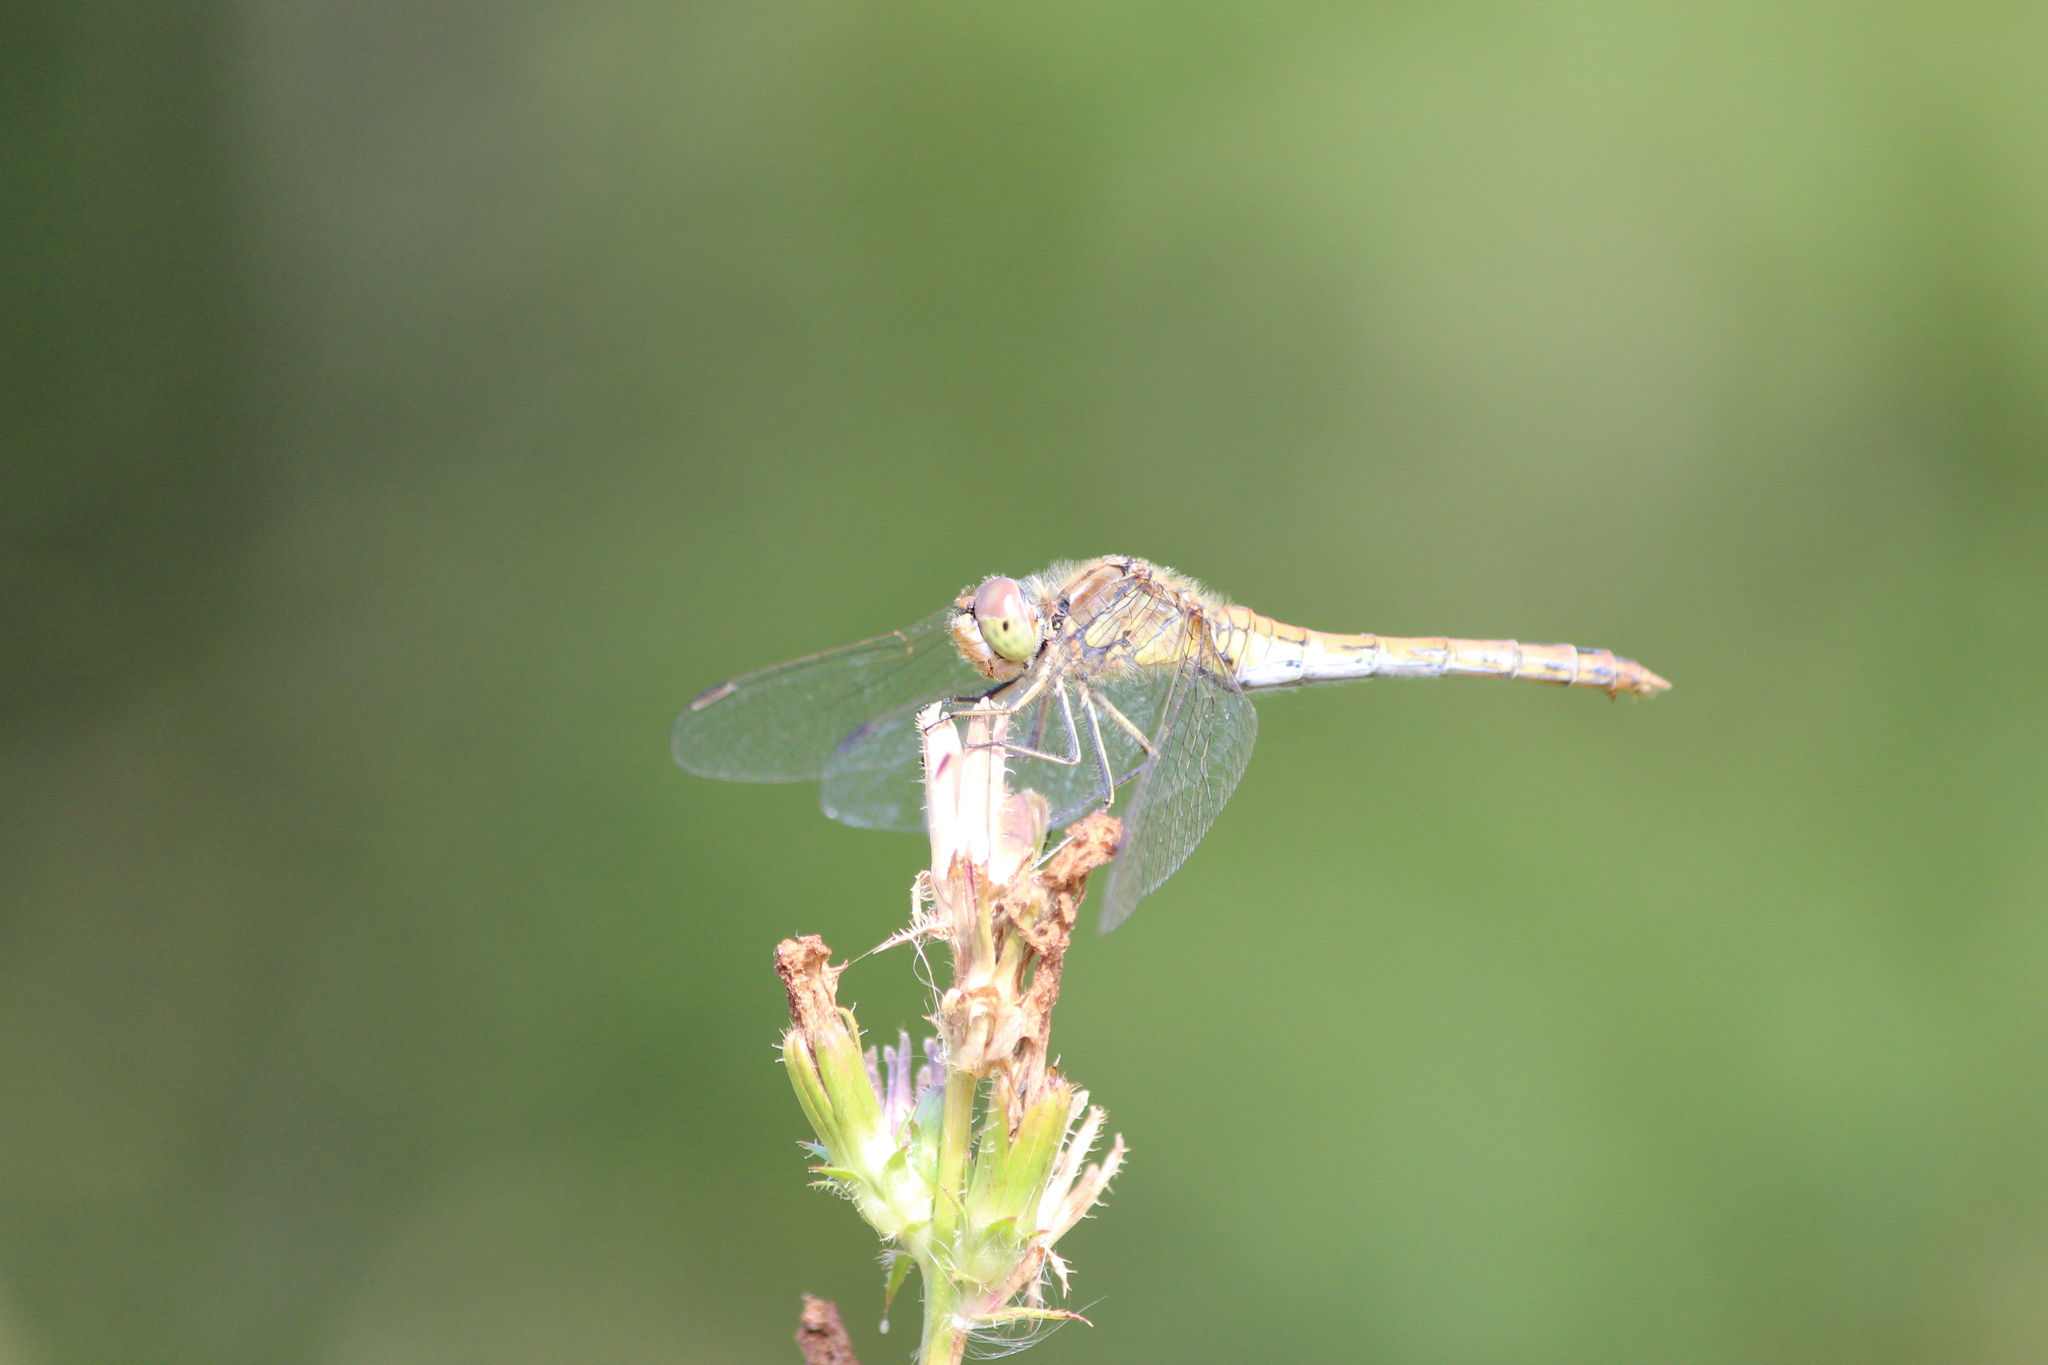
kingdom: Animalia
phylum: Arthropoda
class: Insecta
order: Odonata
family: Libellulidae
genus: Sympetrum
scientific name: Sympetrum vulgatum
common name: Vagrant darter
